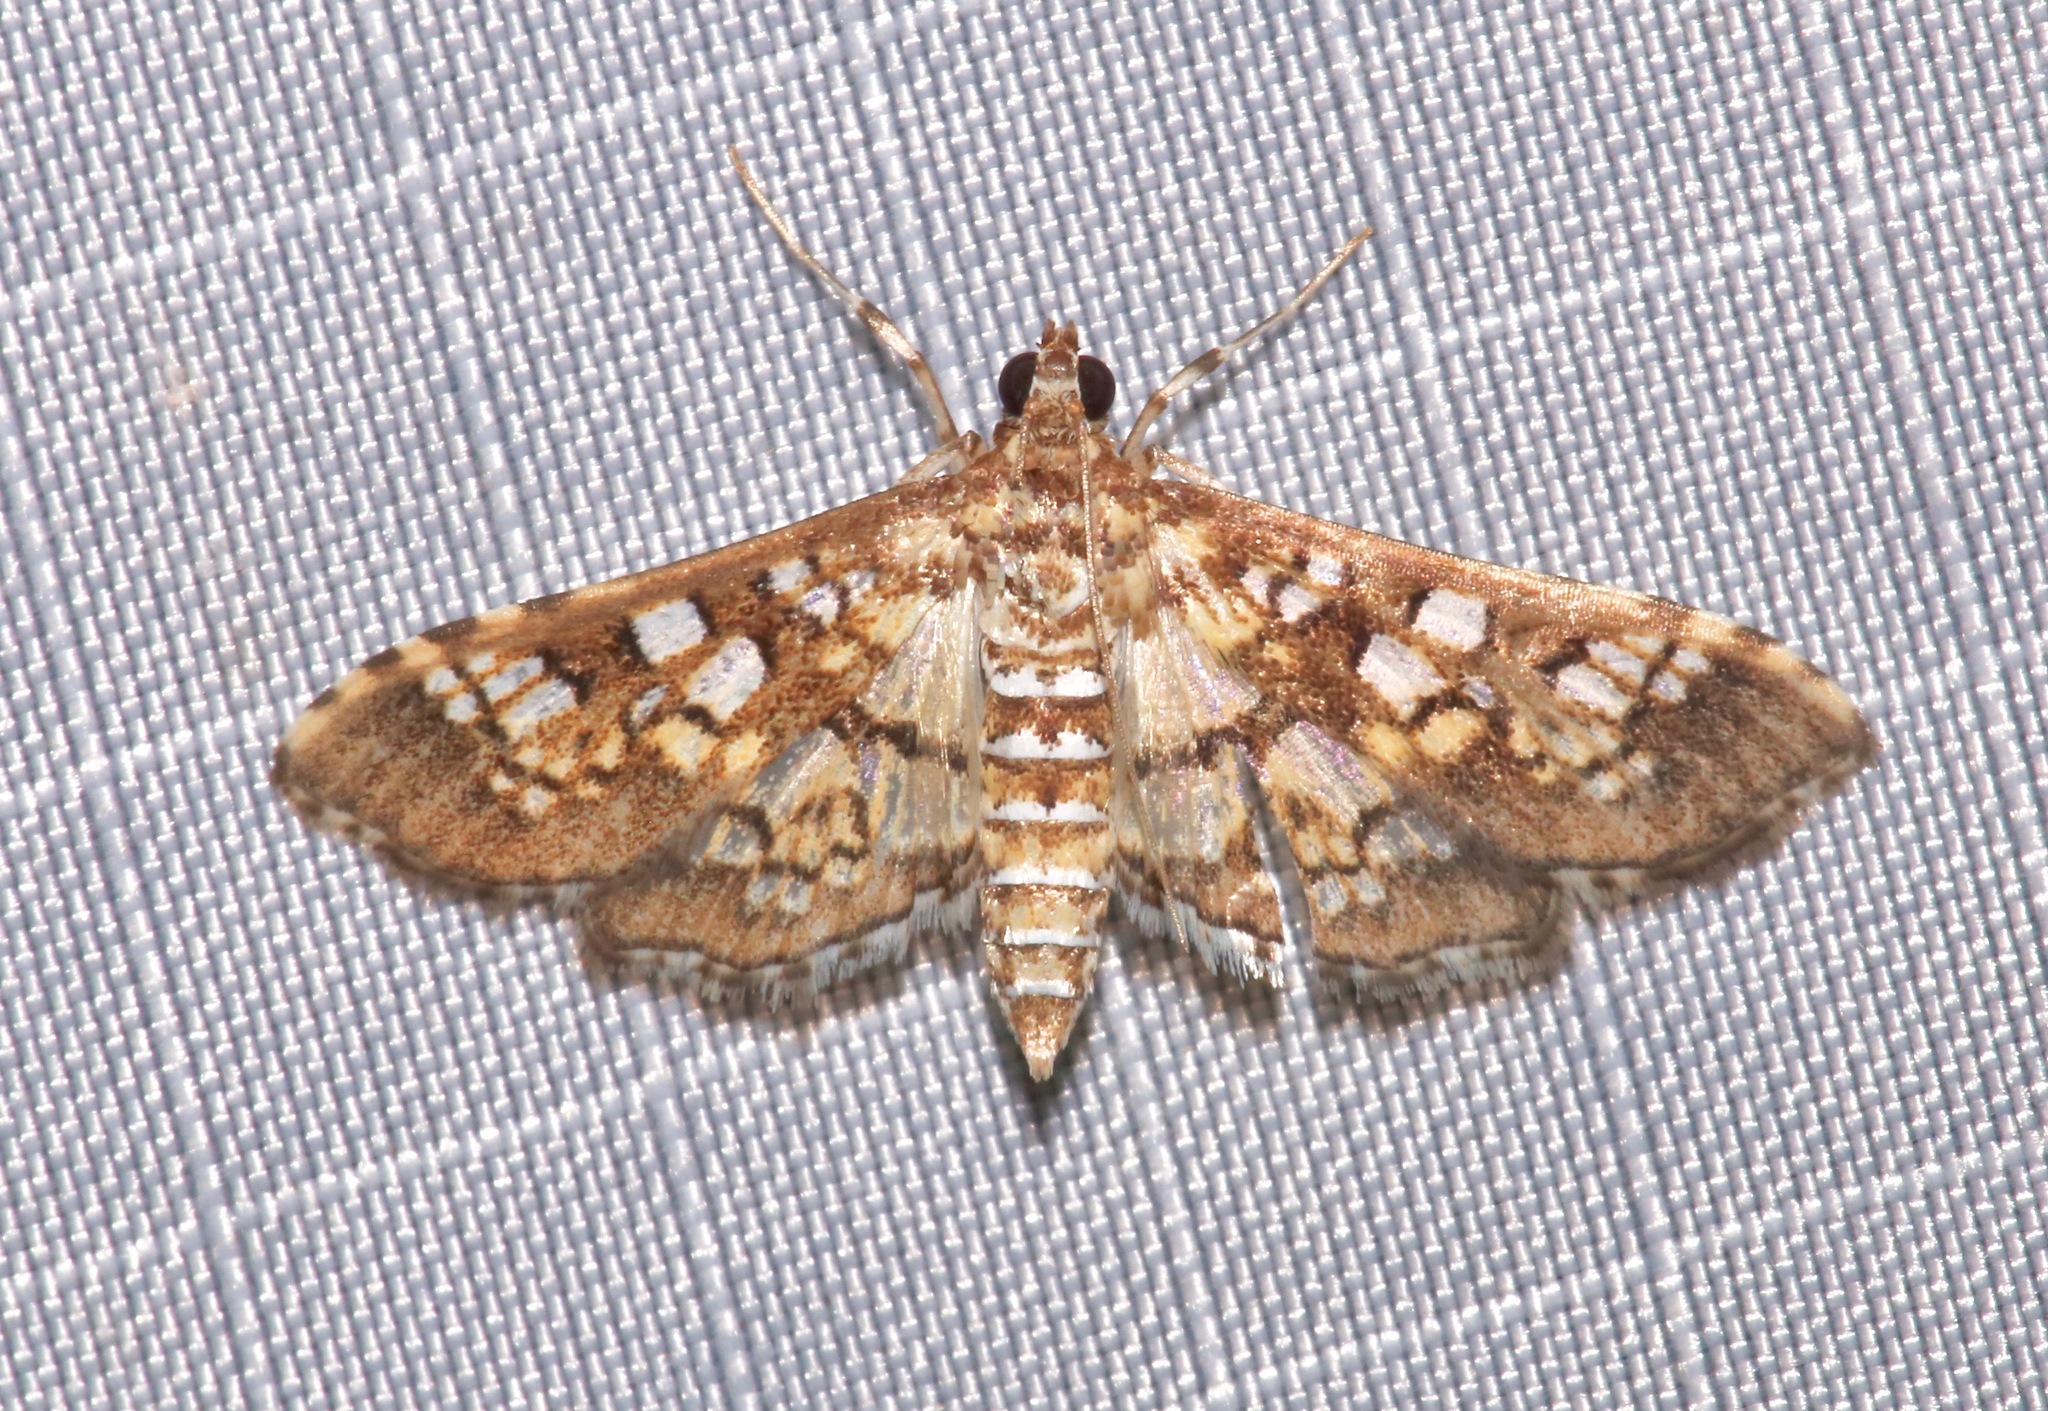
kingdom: Animalia
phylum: Arthropoda
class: Insecta
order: Lepidoptera
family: Crambidae
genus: Samea
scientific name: Samea ecclesialis
